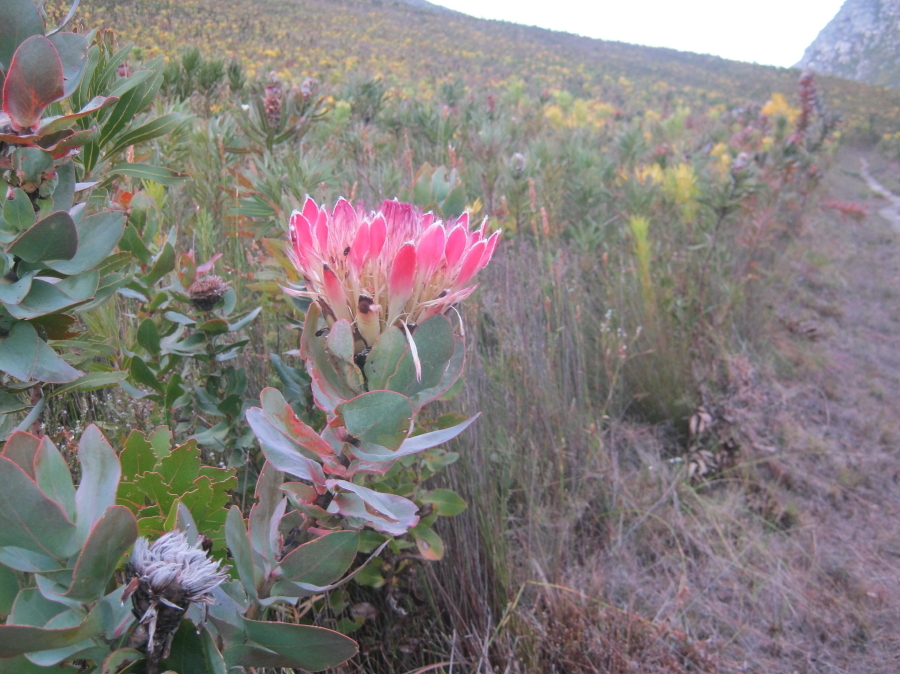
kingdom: Plantae
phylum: Tracheophyta
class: Magnoliopsida
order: Proteales
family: Proteaceae
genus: Protea
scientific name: Protea eximia
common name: Broad-leaved sugarbush
